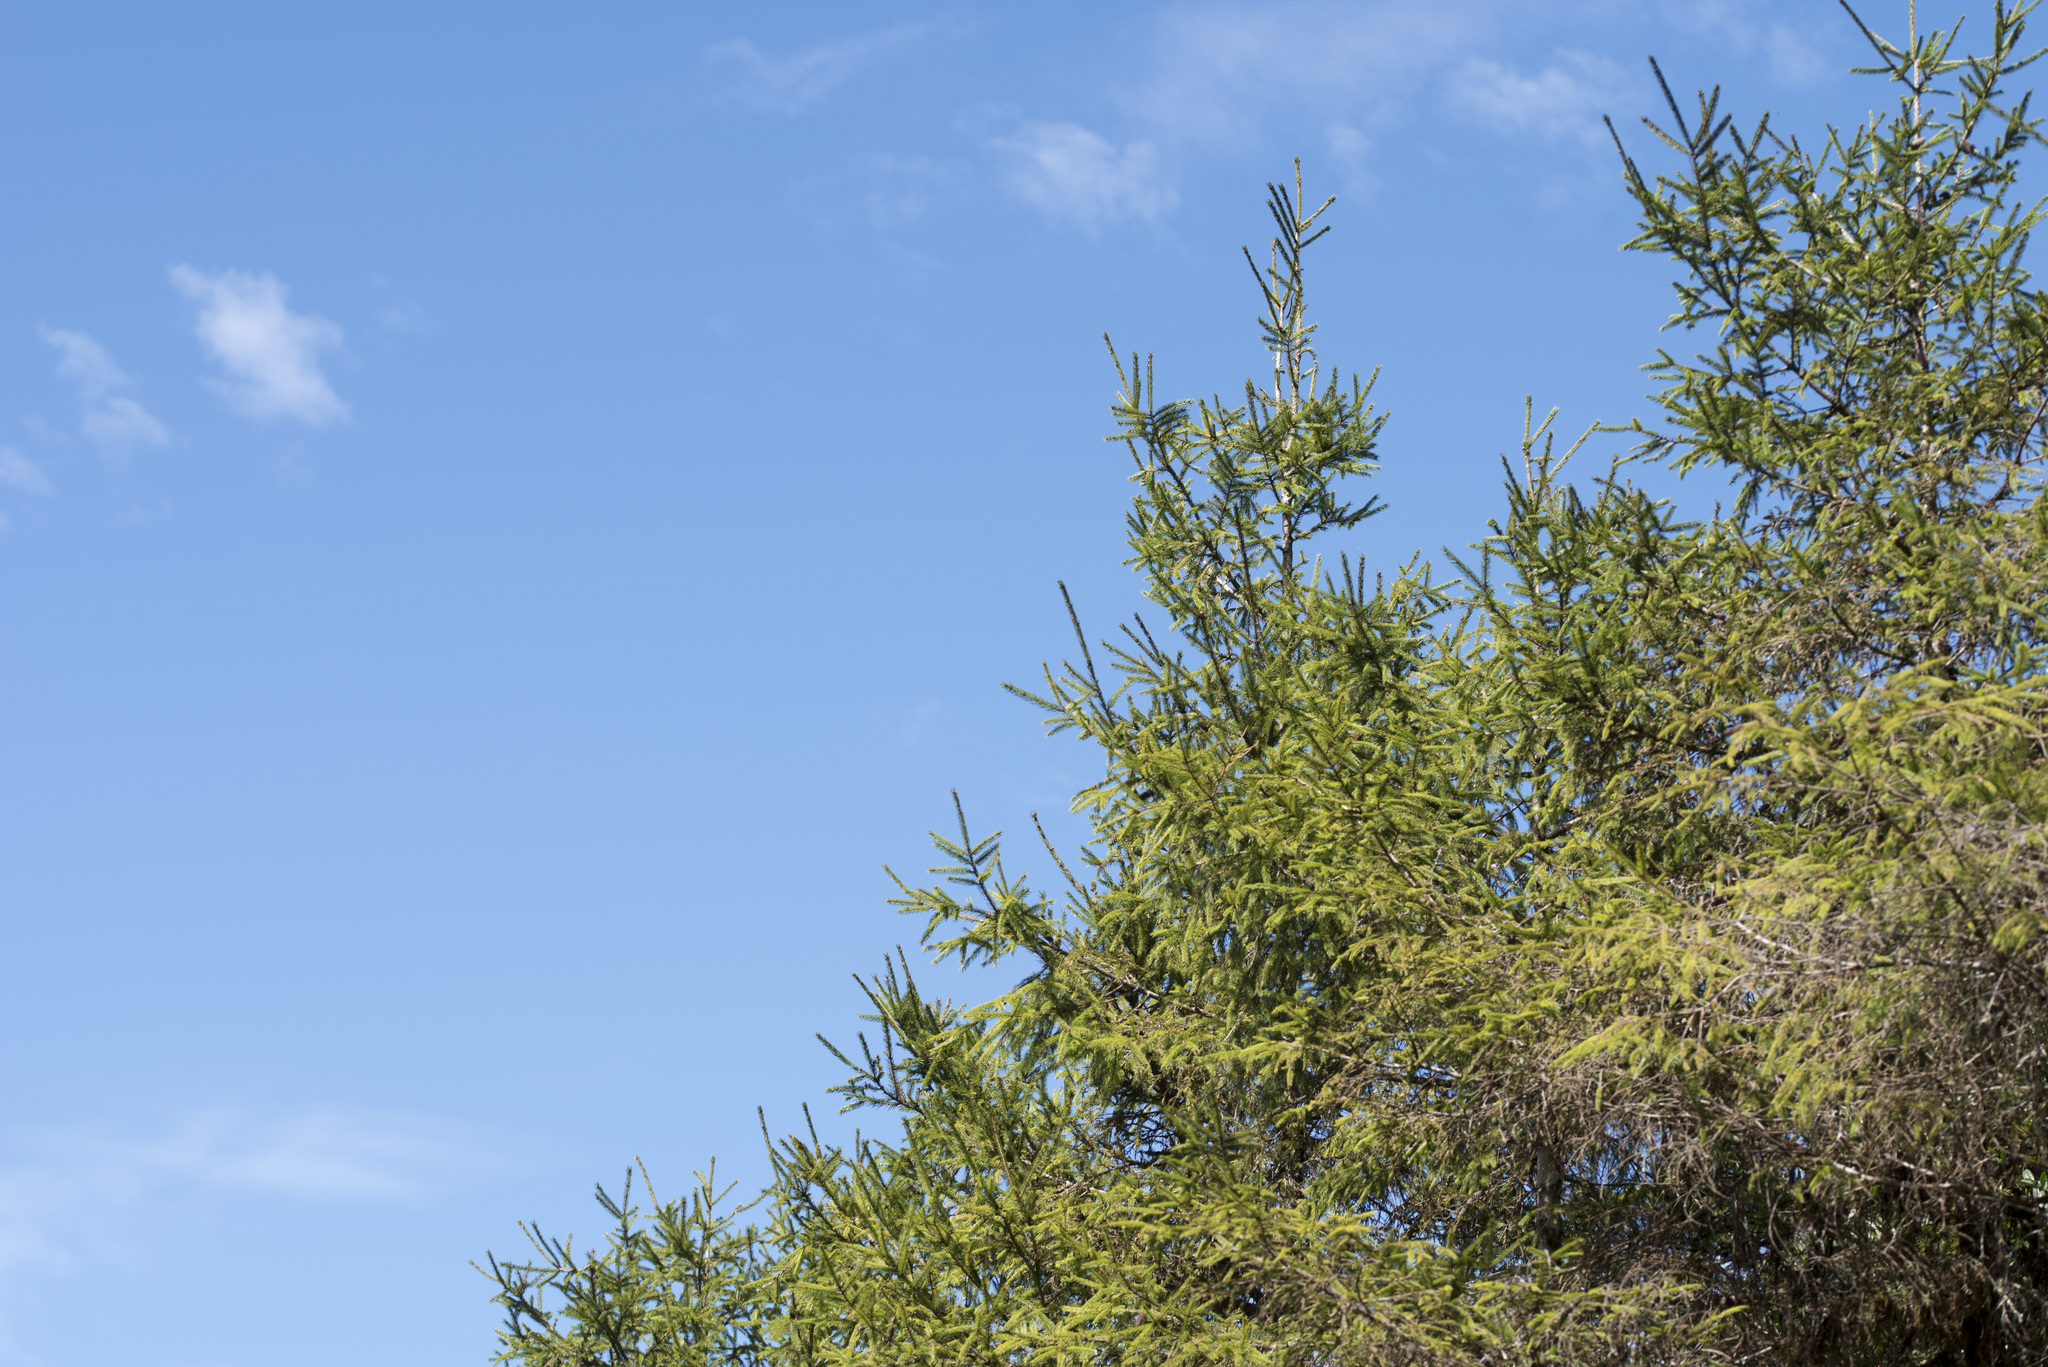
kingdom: Plantae
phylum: Tracheophyta
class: Pinopsida
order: Pinales
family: Pinaceae
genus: Picea
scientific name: Picea morrisonicola
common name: Mount morrison spruce
